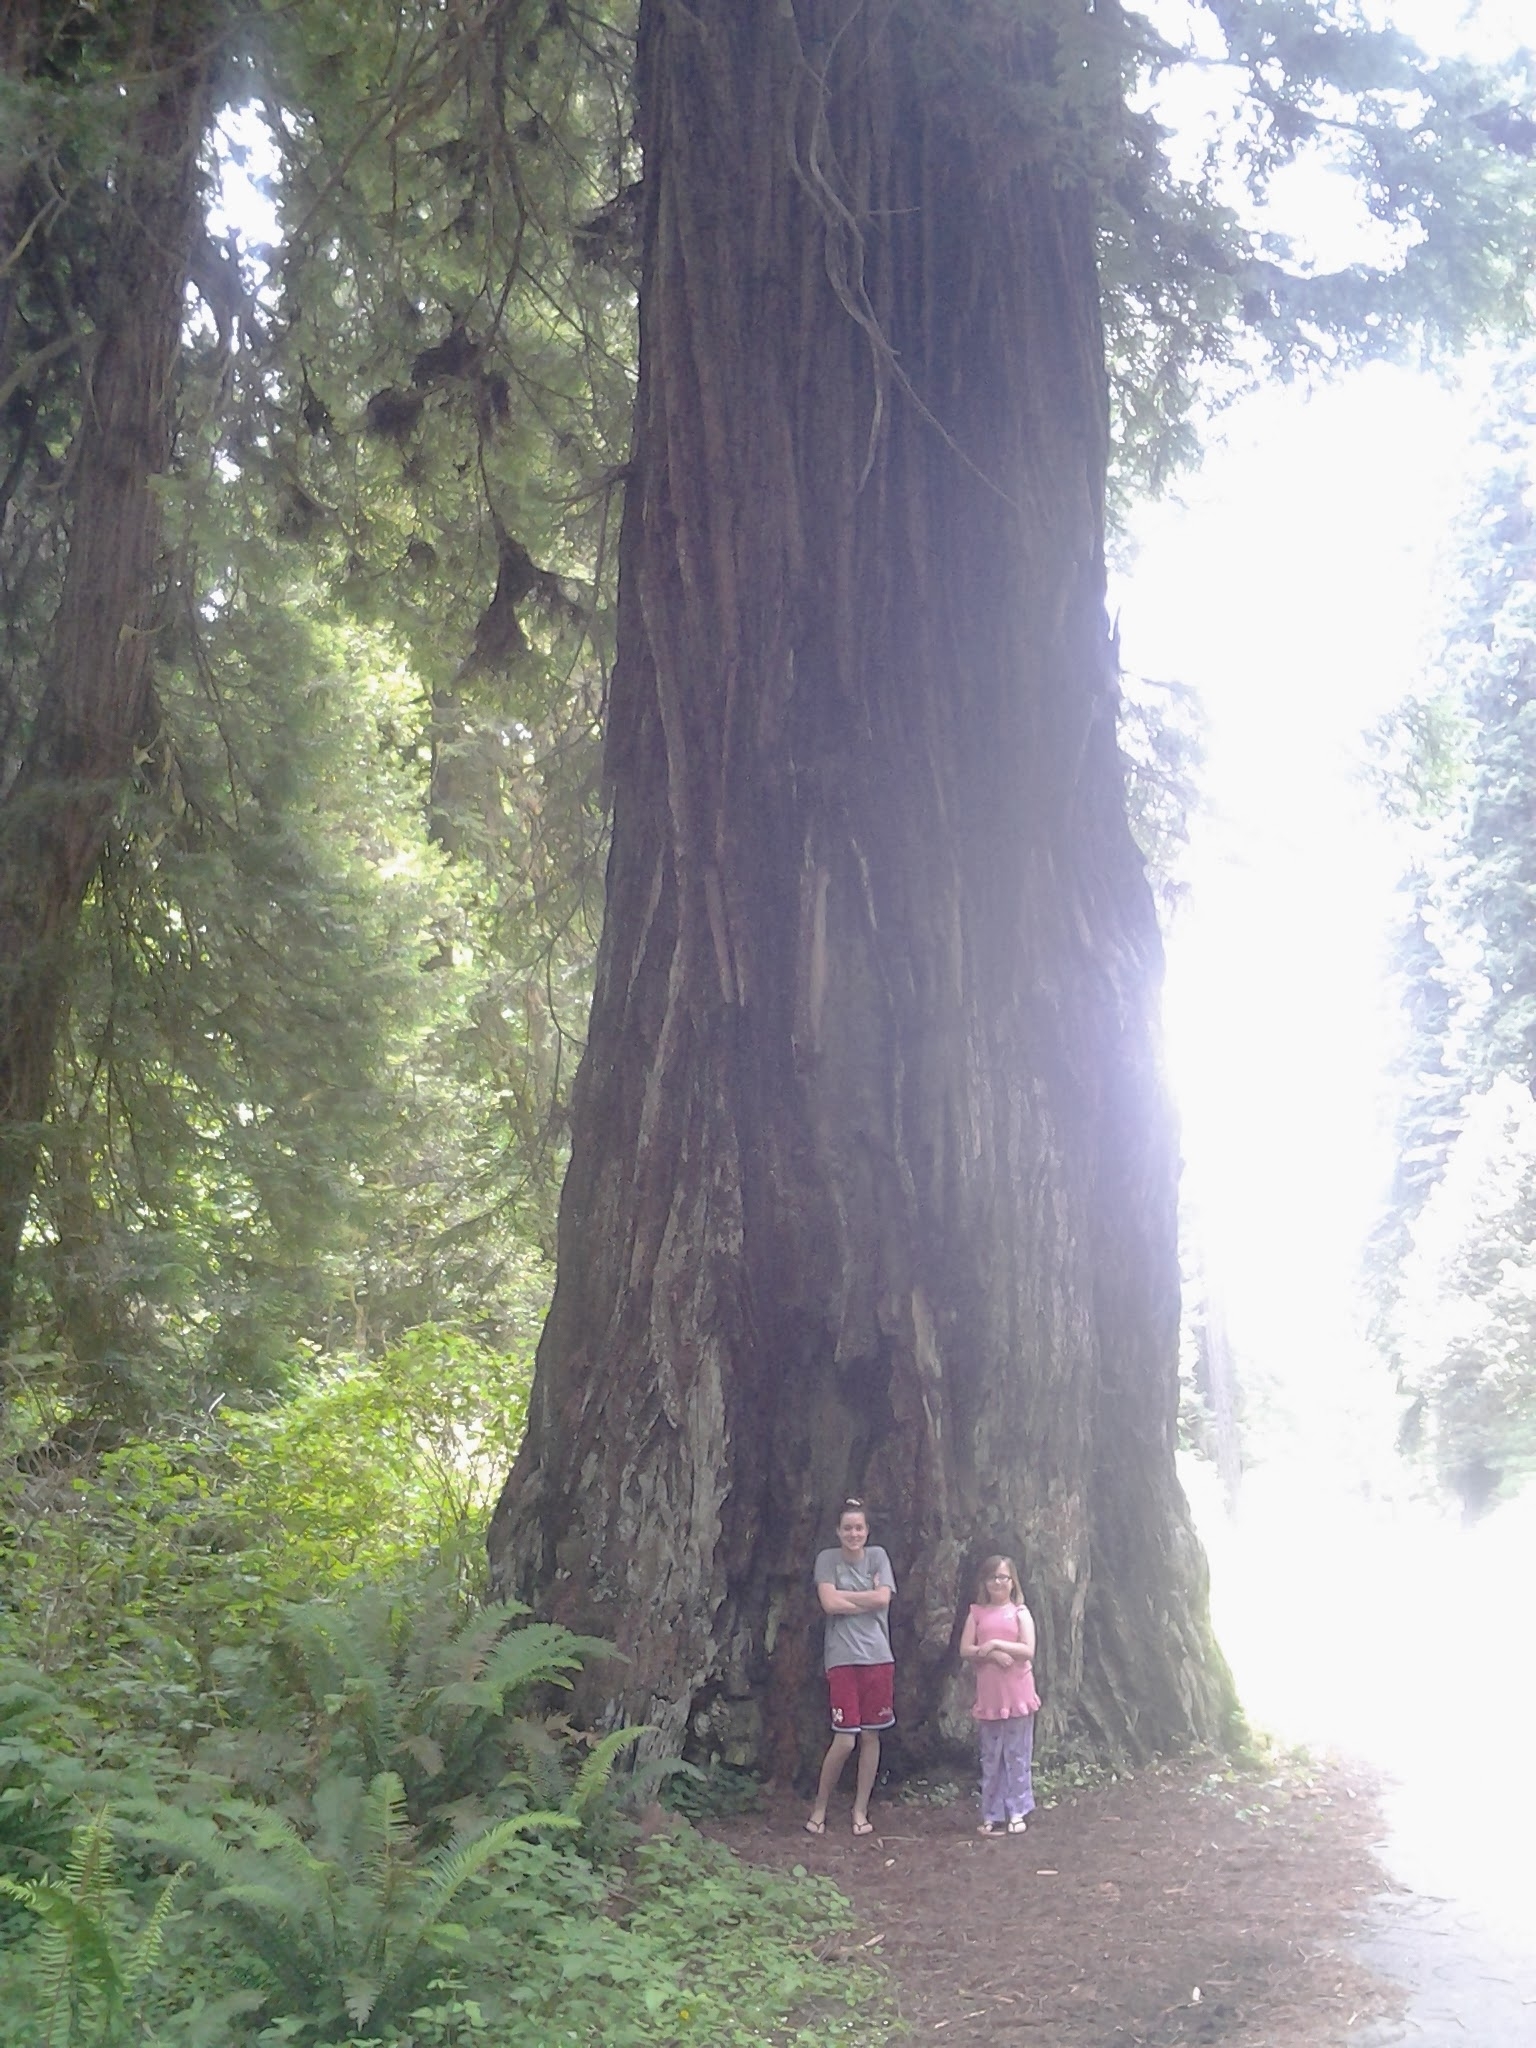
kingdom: Plantae
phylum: Tracheophyta
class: Pinopsida
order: Pinales
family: Cupressaceae
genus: Sequoia
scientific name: Sequoia sempervirens
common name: Coast redwood
